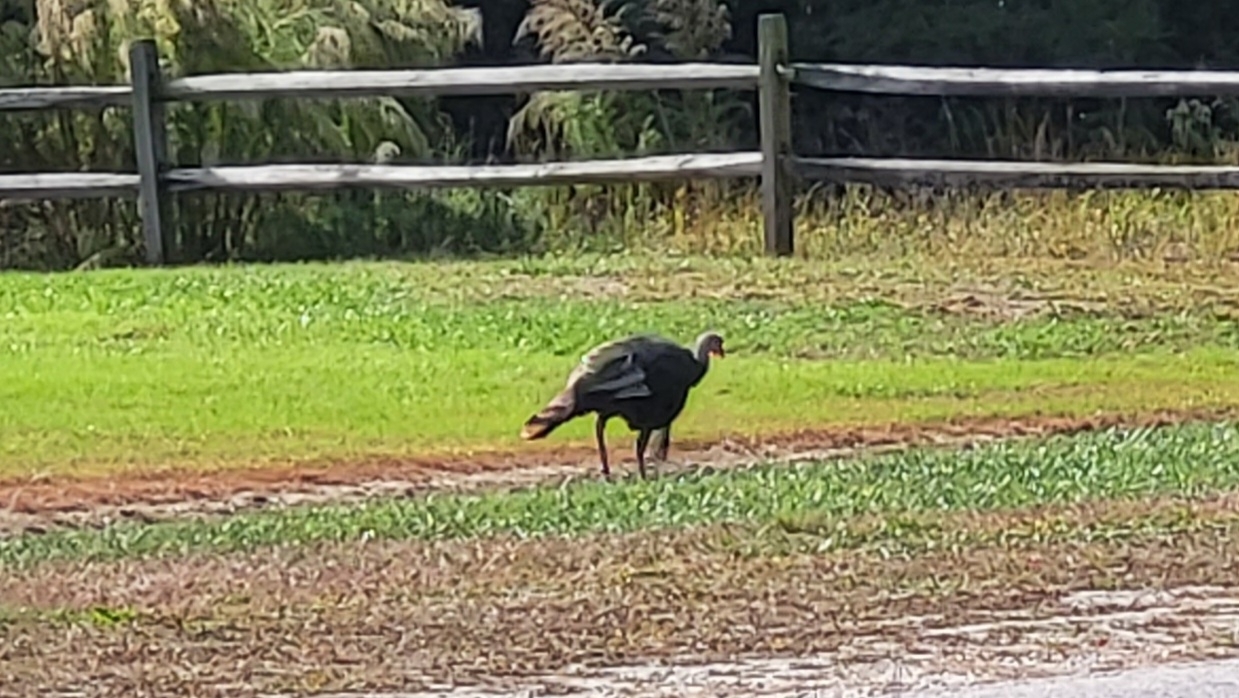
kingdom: Animalia
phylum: Chordata
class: Aves
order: Galliformes
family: Phasianidae
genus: Meleagris
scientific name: Meleagris gallopavo
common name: Wild turkey
